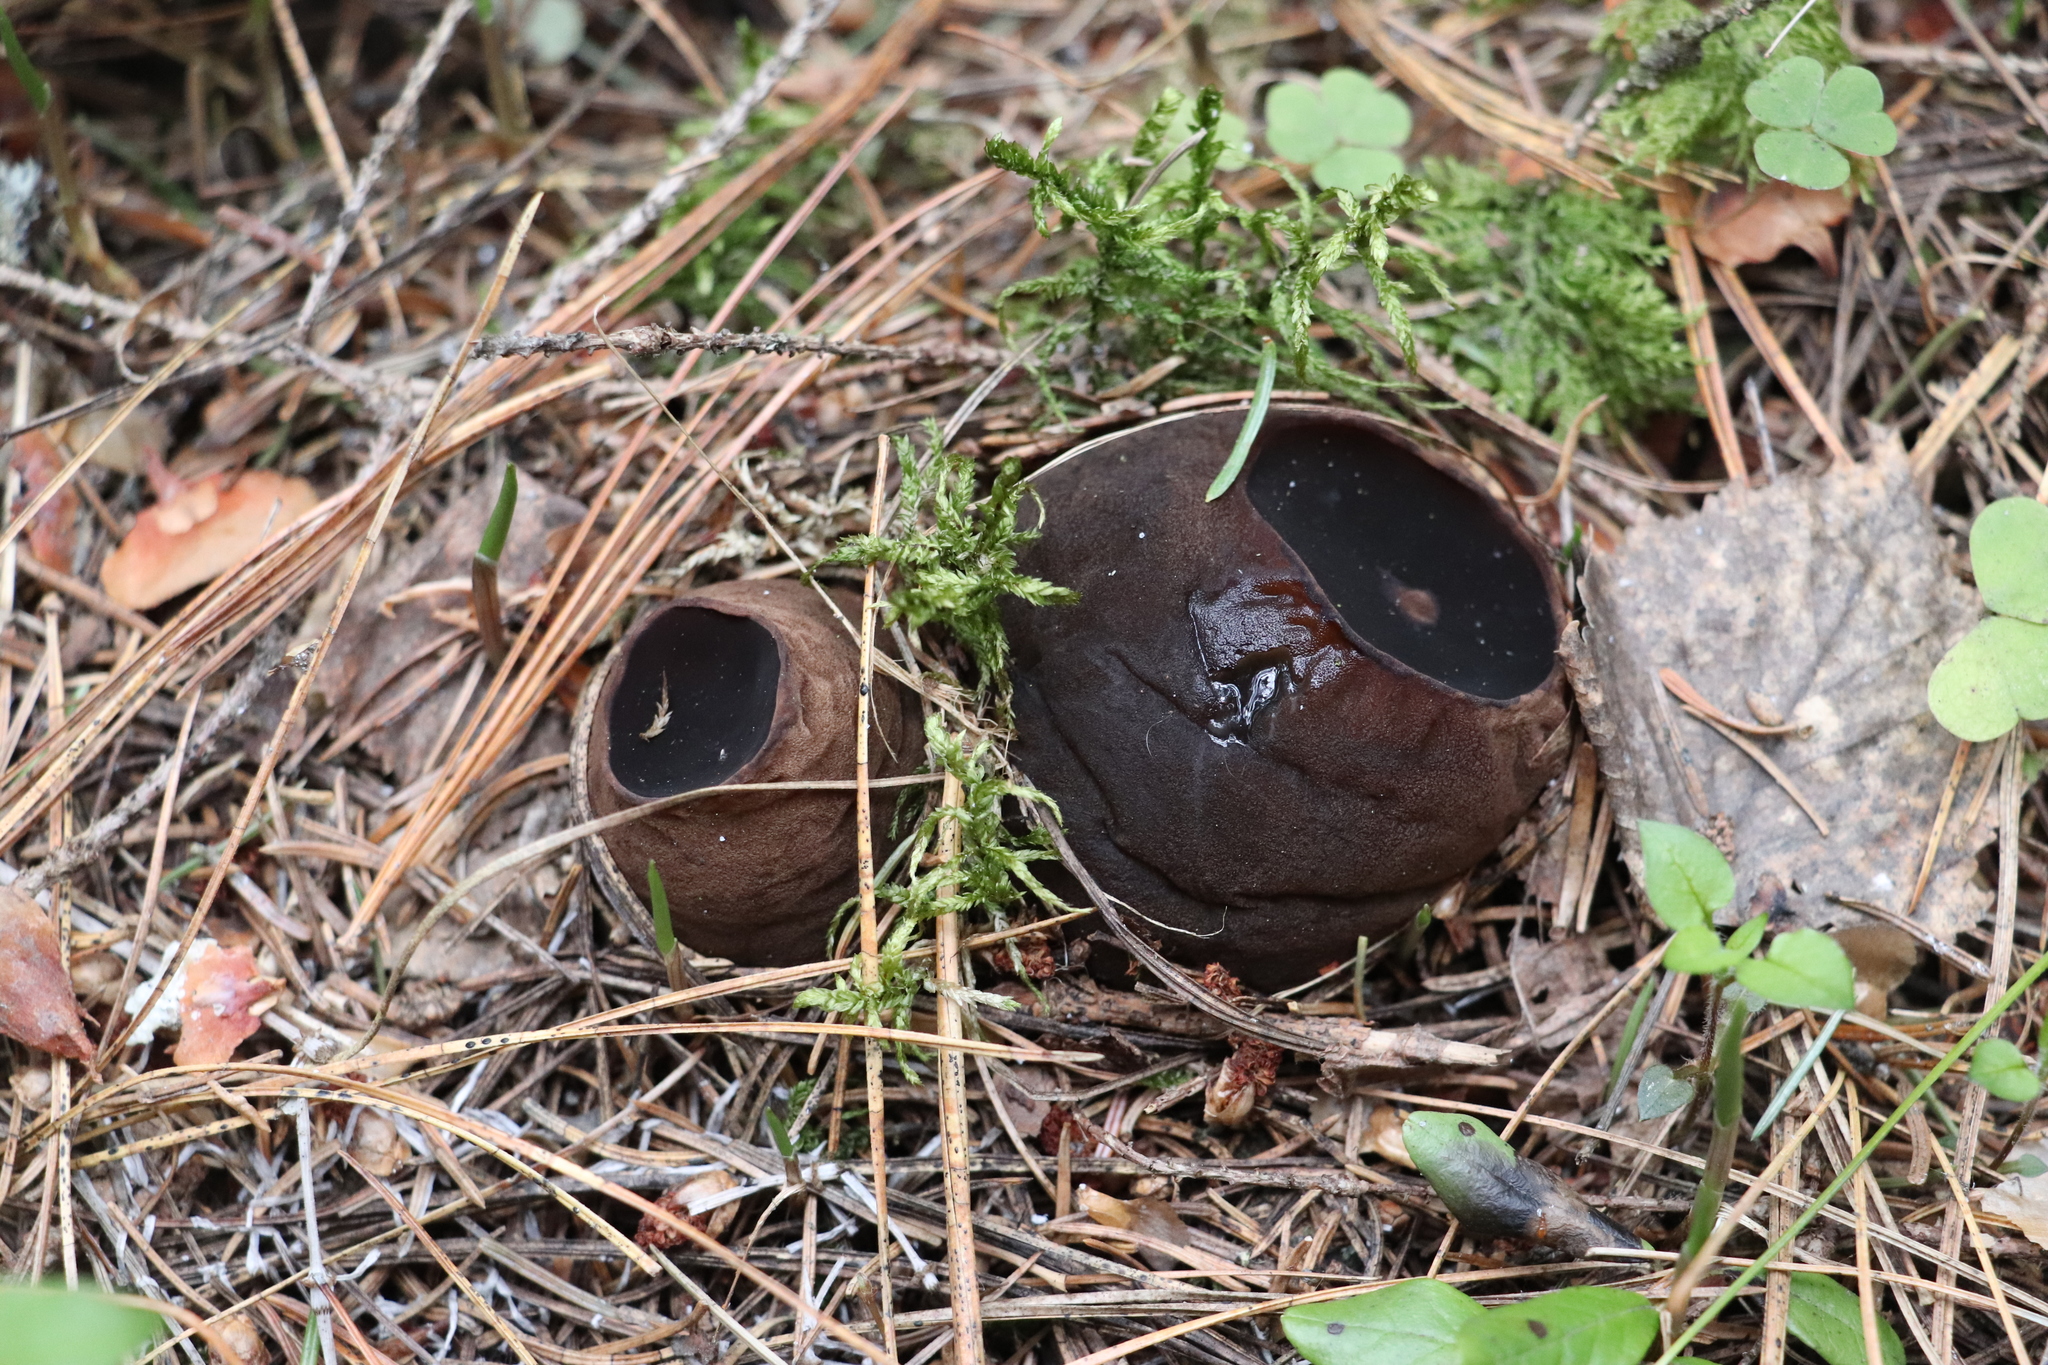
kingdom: Fungi
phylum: Ascomycota
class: Pezizomycetes
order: Pezizales
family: Sarcosomataceae
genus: Sarcosoma
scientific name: Sarcosoma globosum
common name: Charred-pancake cup
